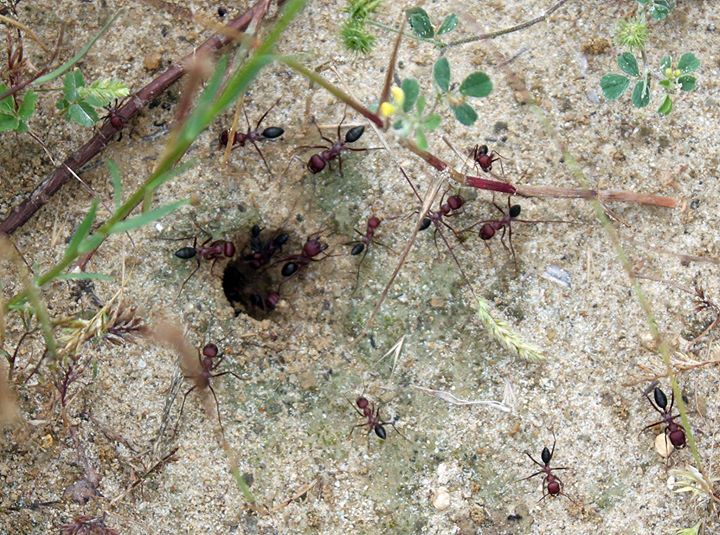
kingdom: Animalia
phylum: Arthropoda
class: Insecta
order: Hymenoptera
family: Formicidae
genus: Cataglyphis
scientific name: Cataglyphis nodus
